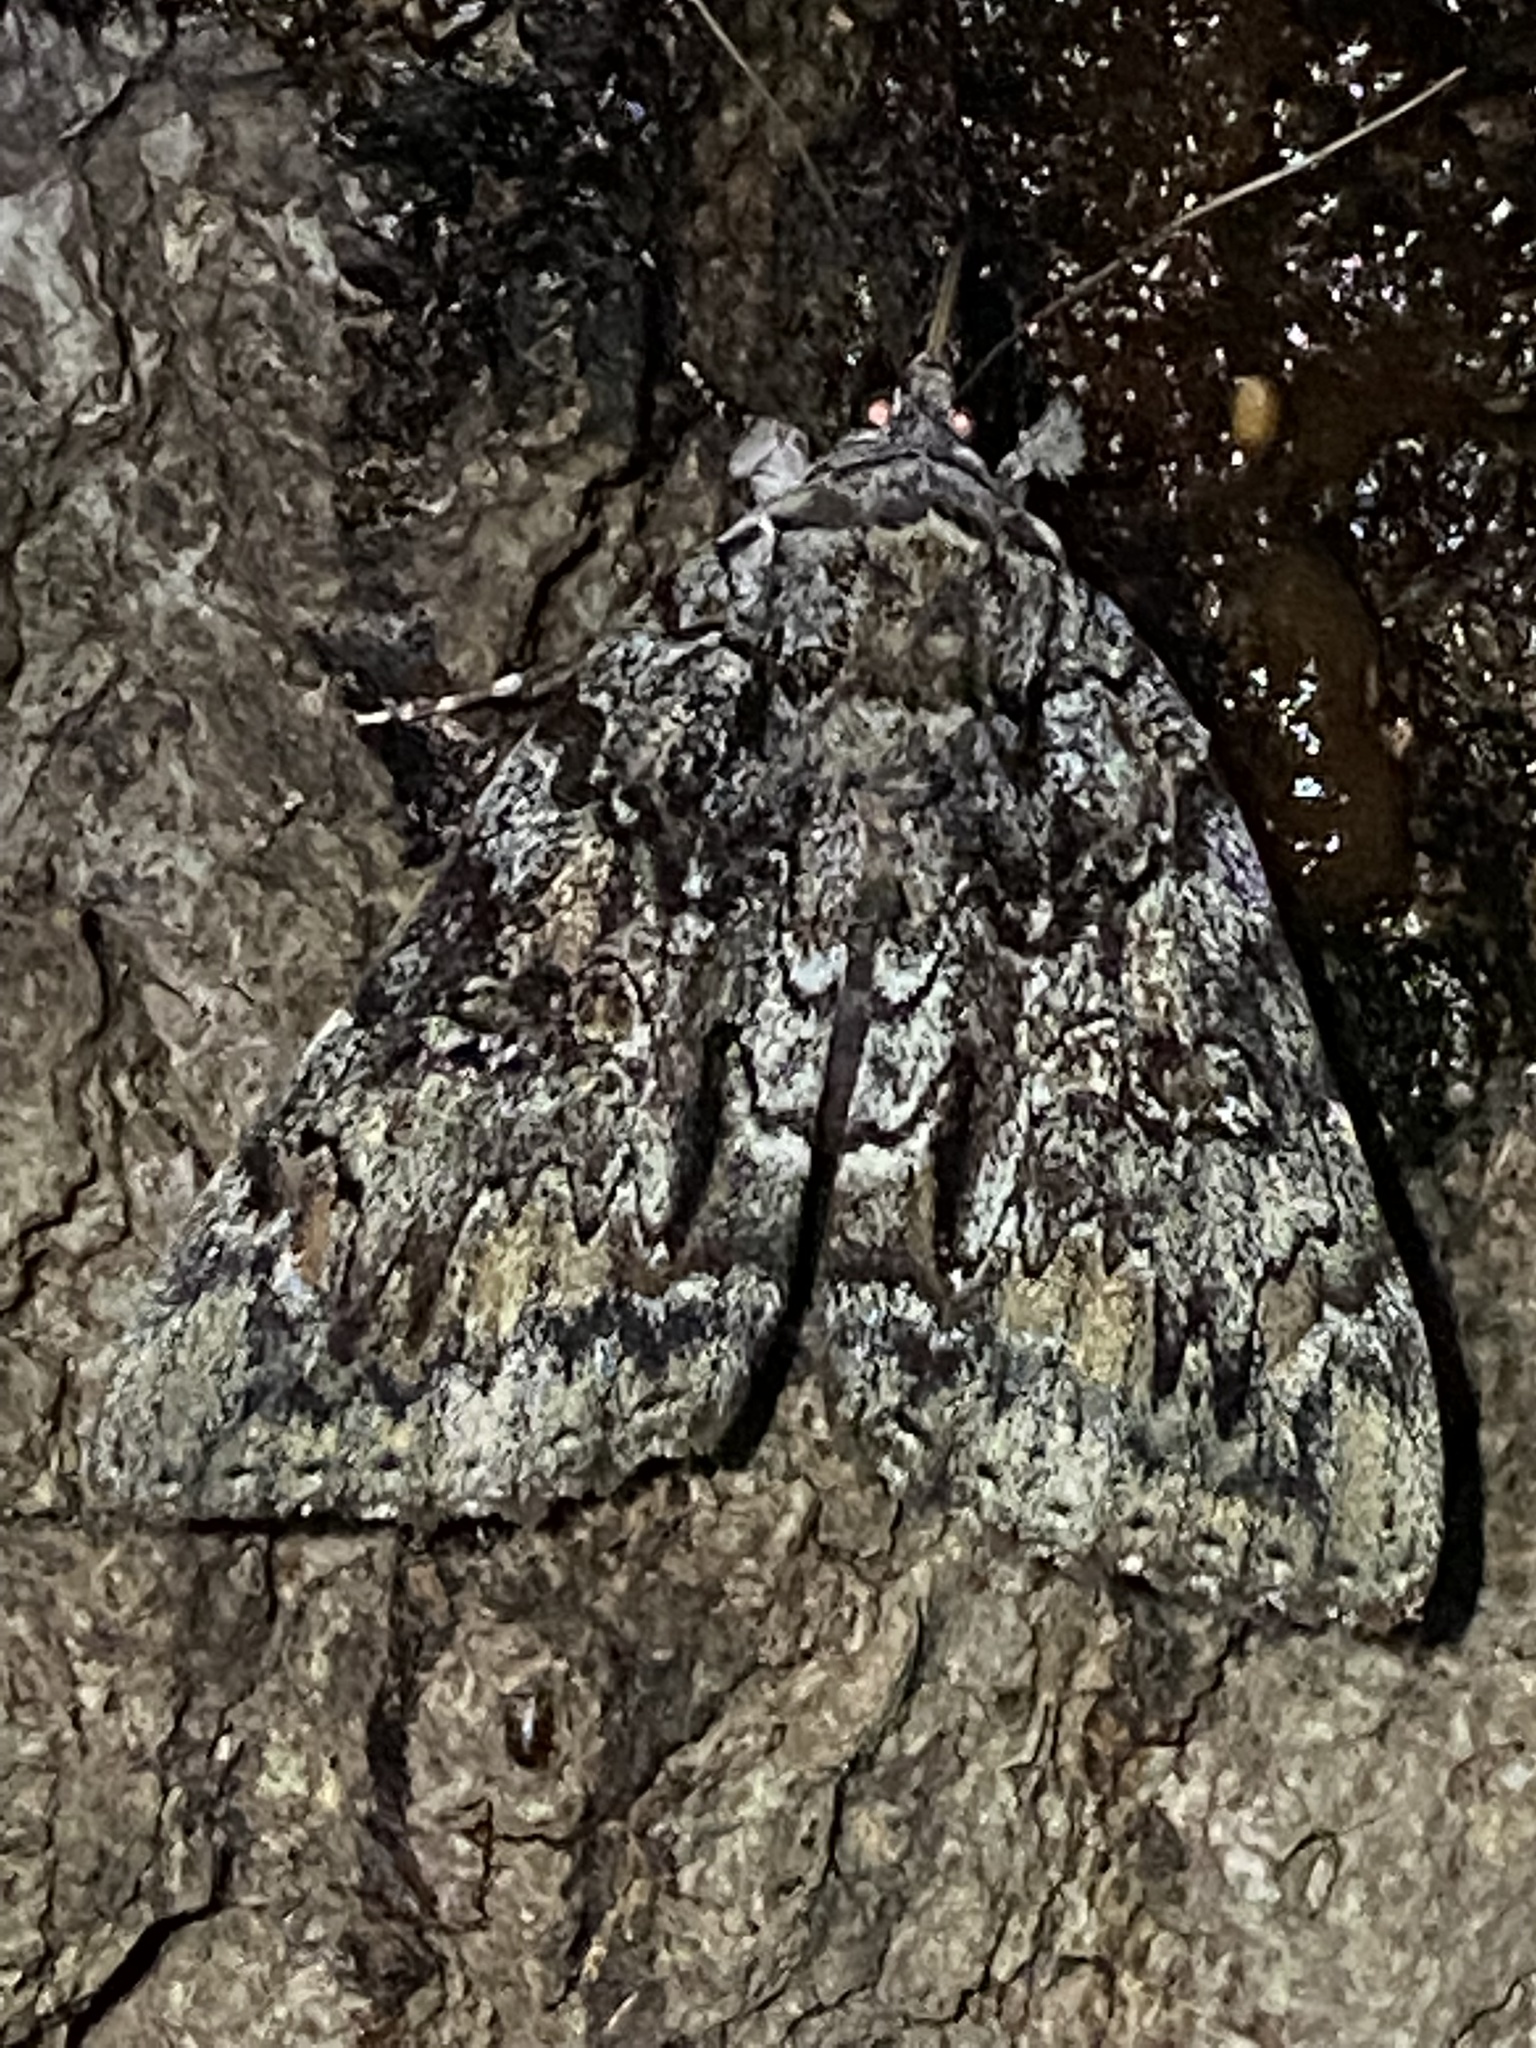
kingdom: Animalia
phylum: Arthropoda
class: Insecta
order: Lepidoptera
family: Erebidae
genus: Catocala
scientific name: Catocala lacrymosa
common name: Tearful underwing
